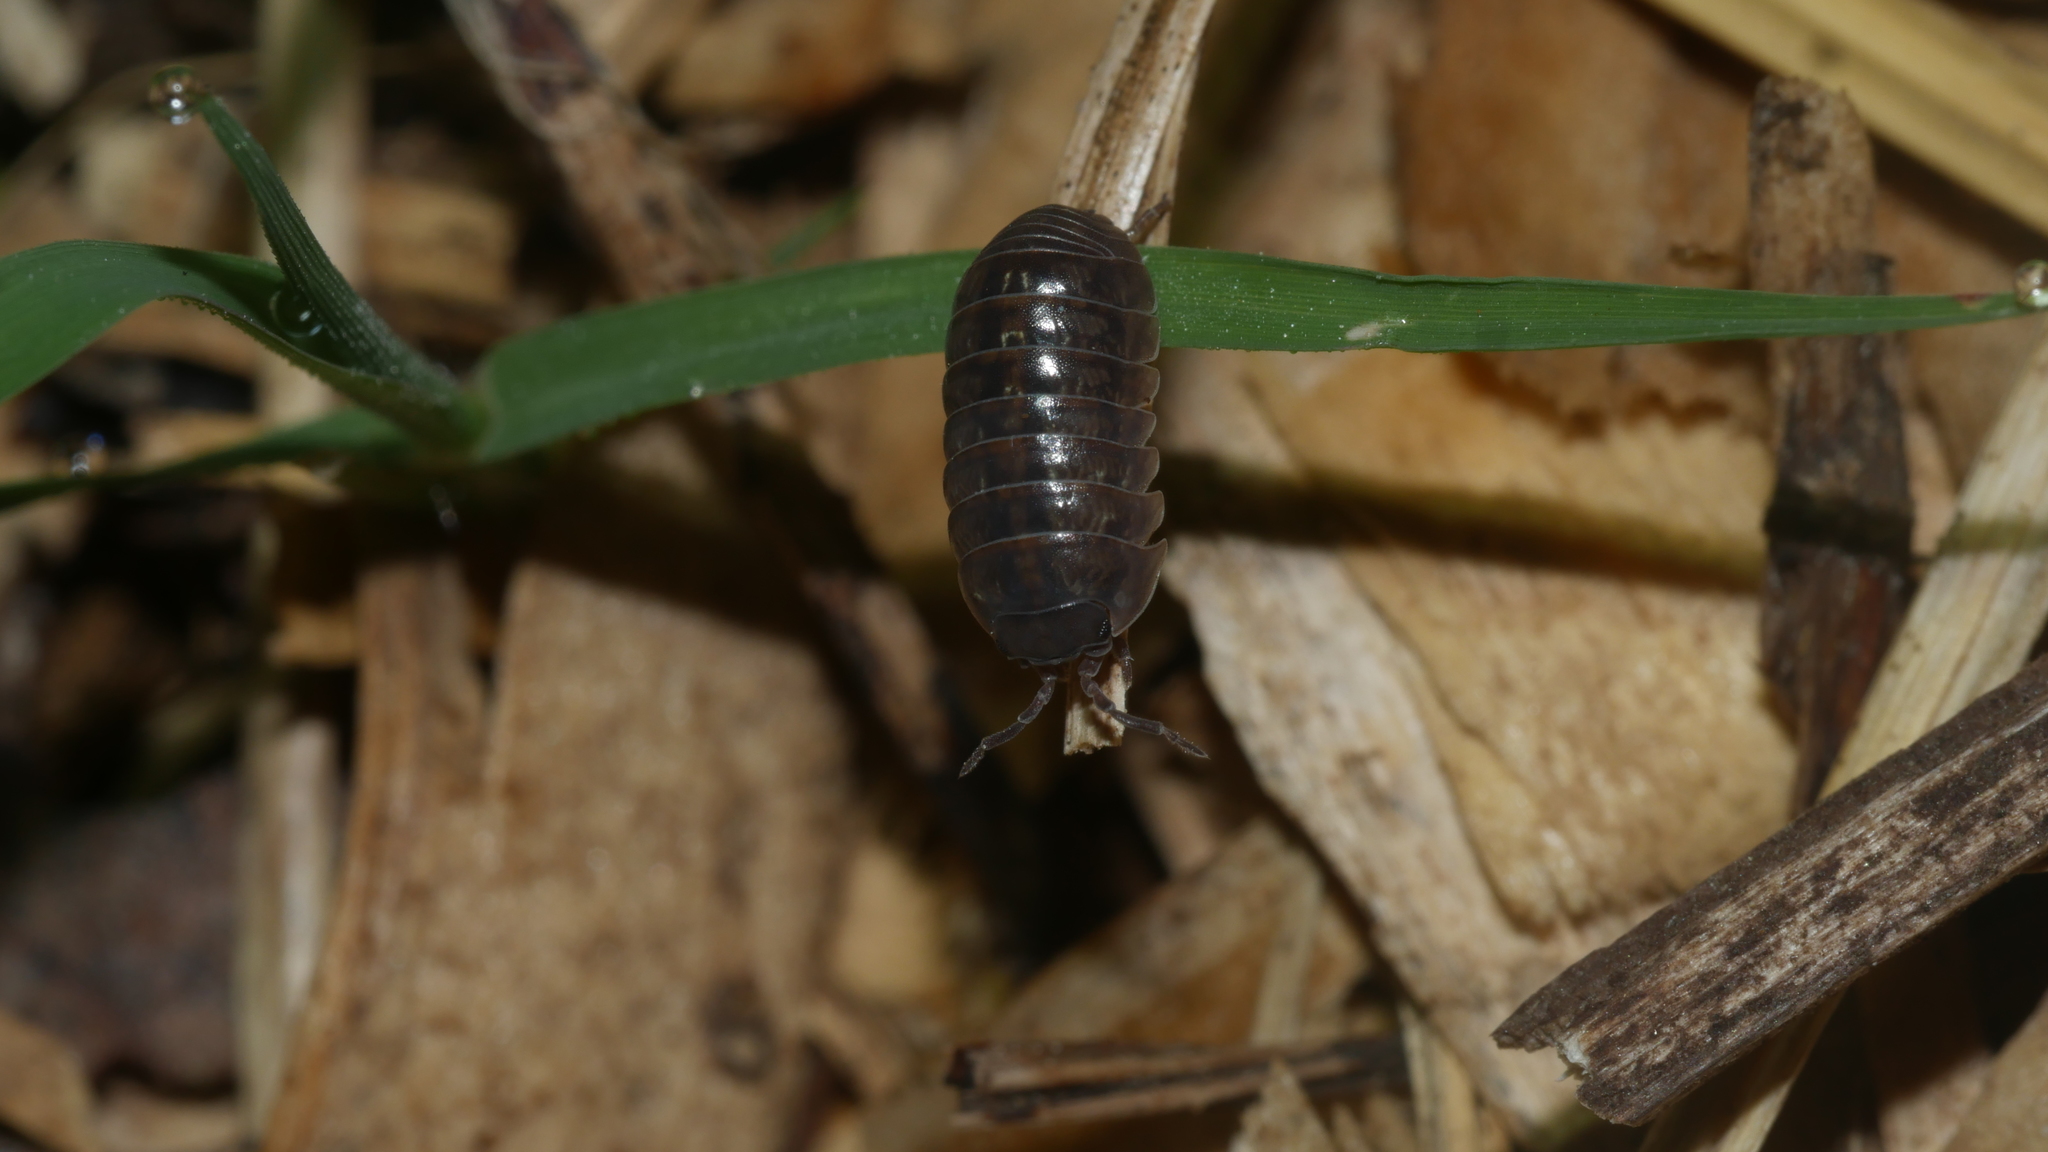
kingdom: Animalia
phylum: Arthropoda
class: Malacostraca
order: Isopoda
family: Armadillidiidae
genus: Armadillidium
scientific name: Armadillidium vulgare
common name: Common pill woodlouse
